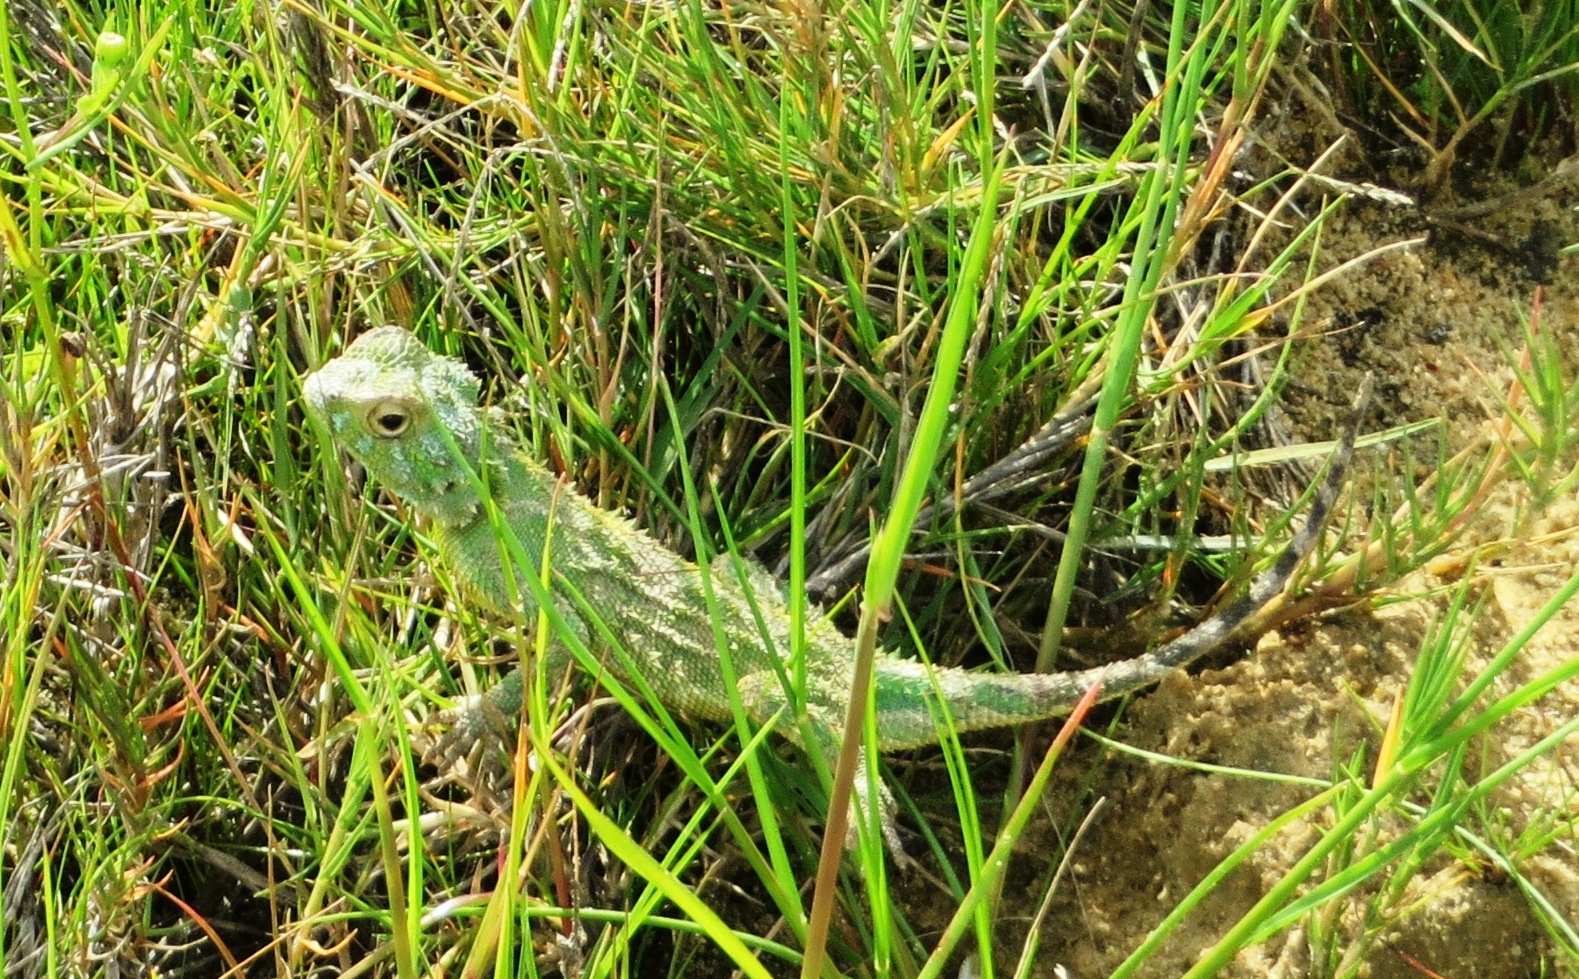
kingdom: Animalia
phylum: Chordata
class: Squamata
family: Agamidae
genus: Agama
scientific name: Agama hispida
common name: Common spiny agama
